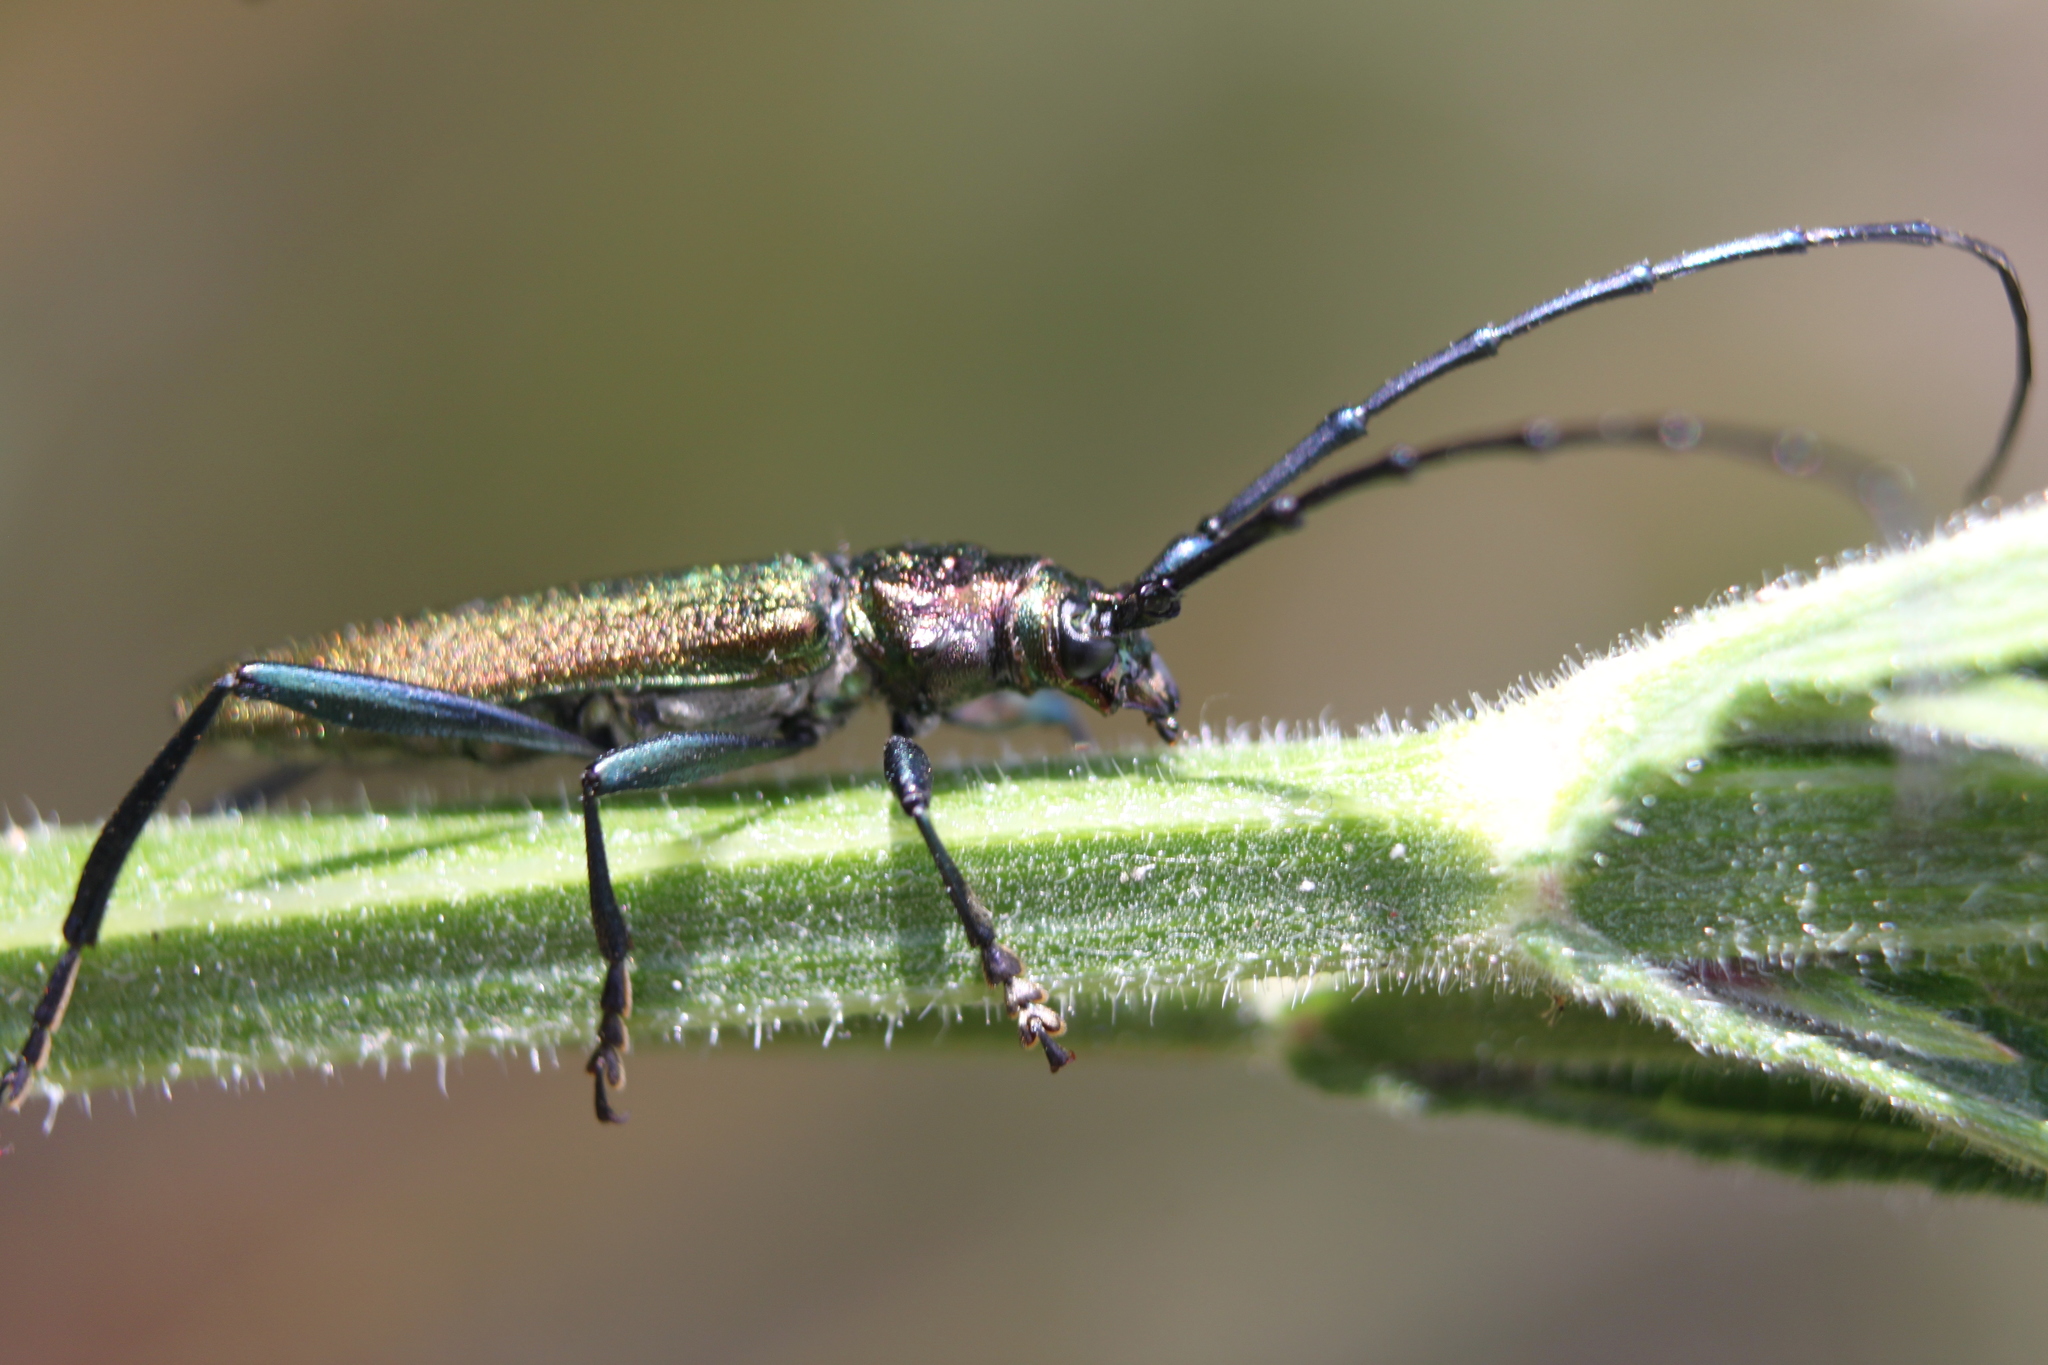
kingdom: Animalia
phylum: Arthropoda
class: Insecta
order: Coleoptera
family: Cerambycidae
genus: Aromia
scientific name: Aromia moschata
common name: Musk beetle
